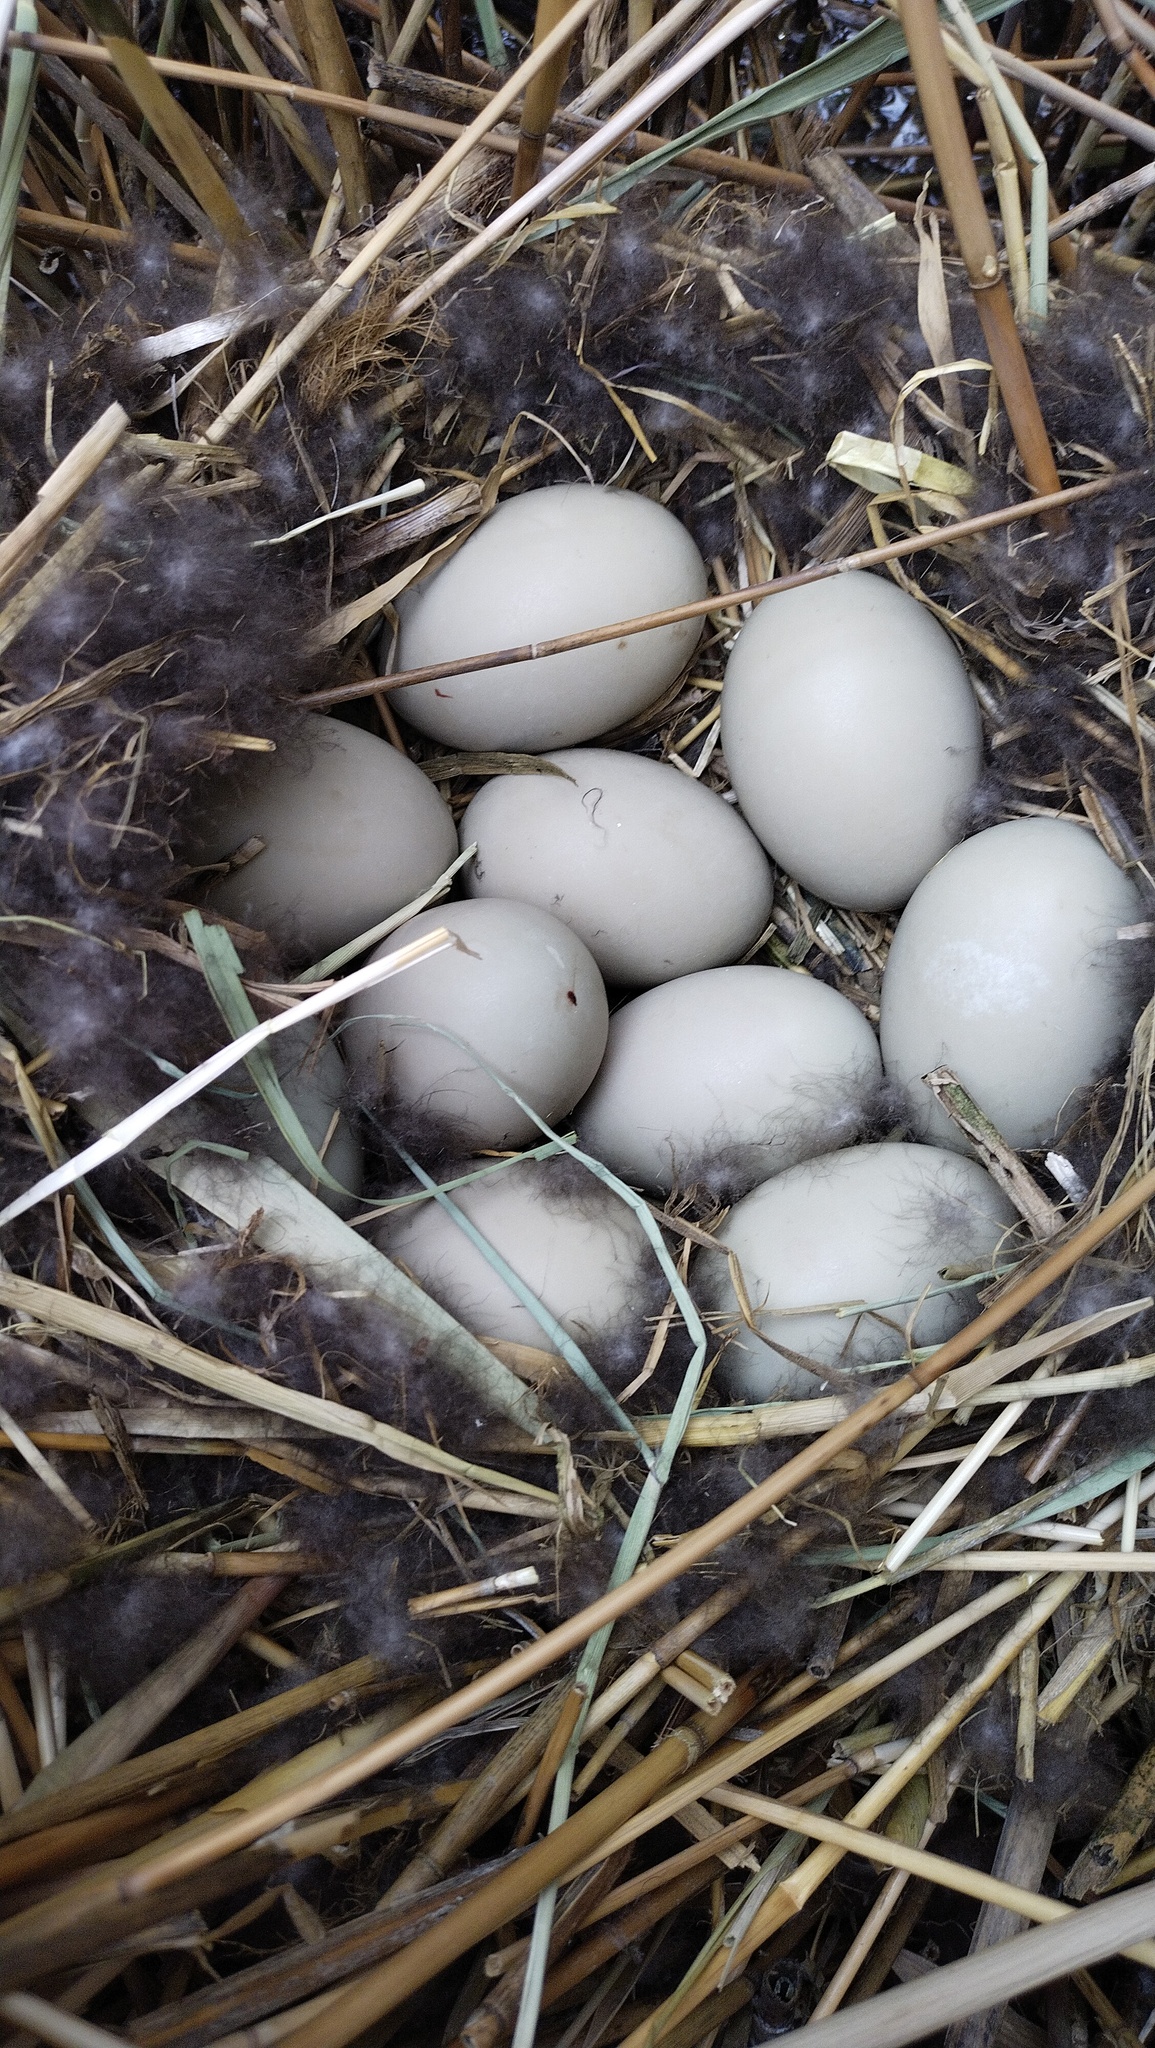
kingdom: Animalia
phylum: Chordata
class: Aves
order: Anseriformes
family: Anatidae
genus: Aythya
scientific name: Aythya ferina
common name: Common pochard
